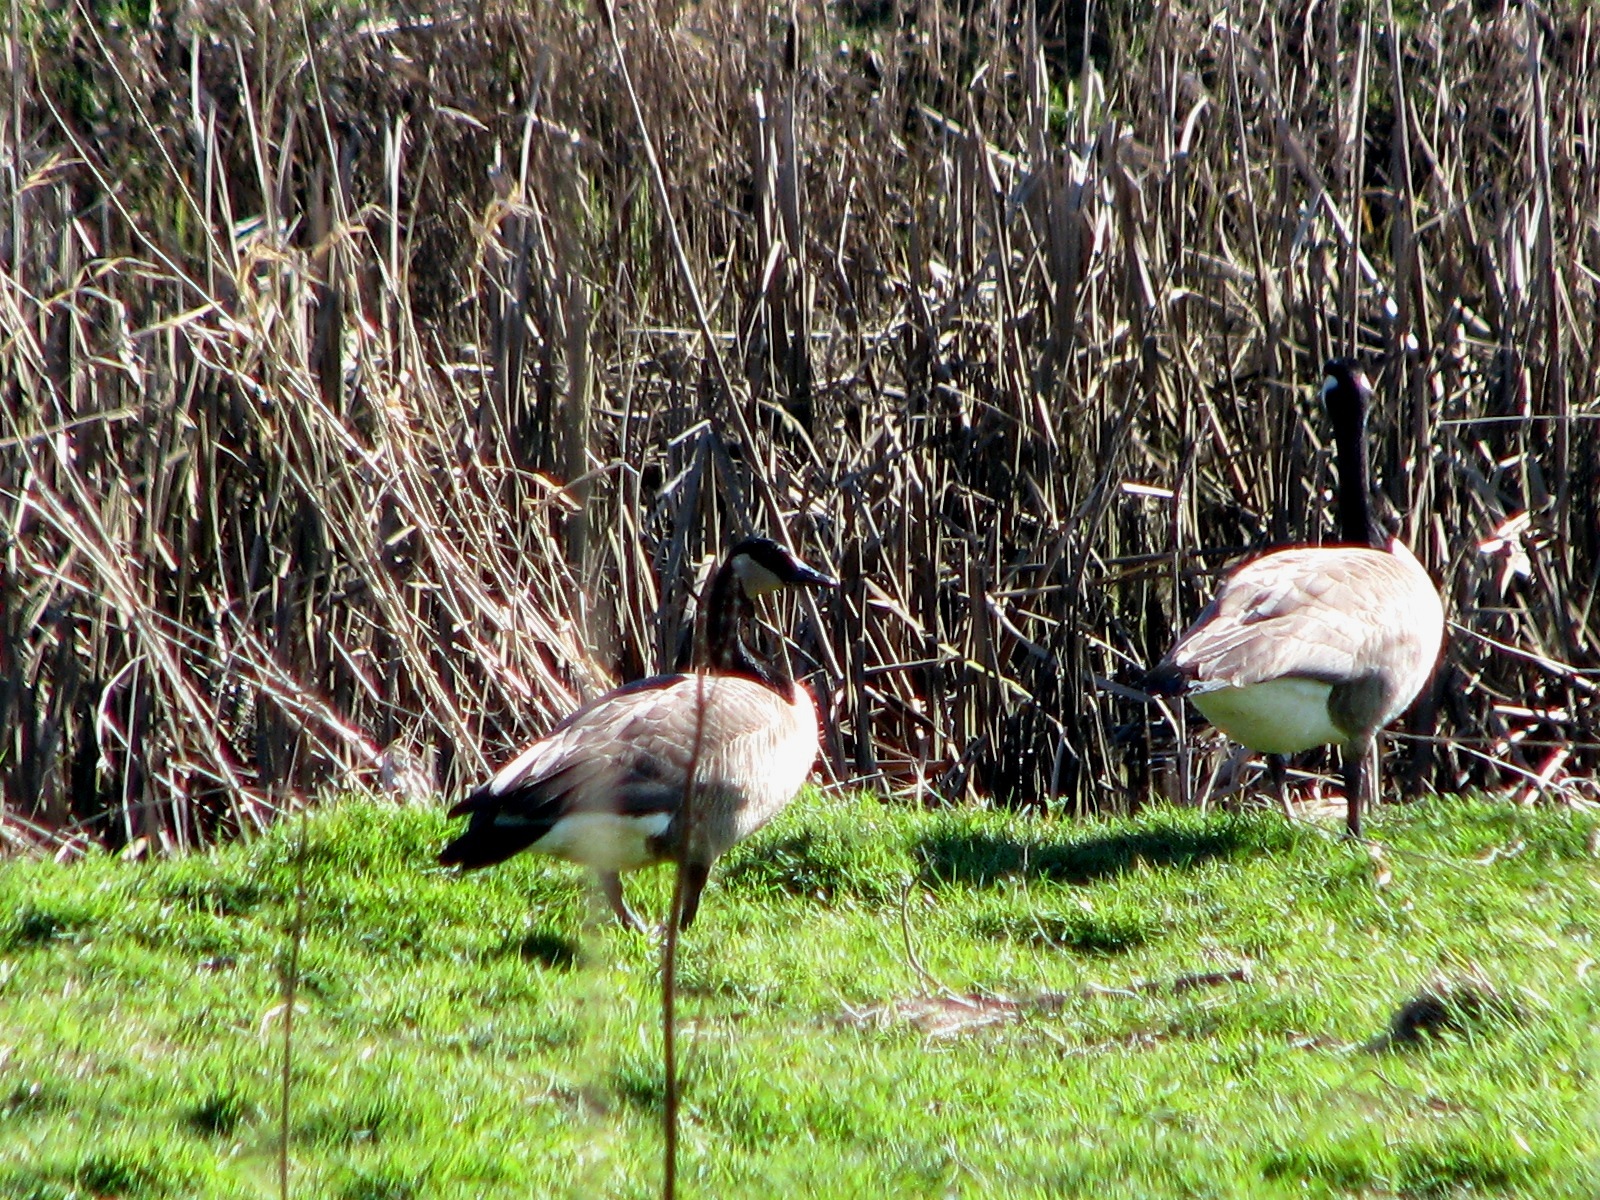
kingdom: Animalia
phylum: Chordata
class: Aves
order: Anseriformes
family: Anatidae
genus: Branta
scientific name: Branta canadensis
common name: Canada goose
